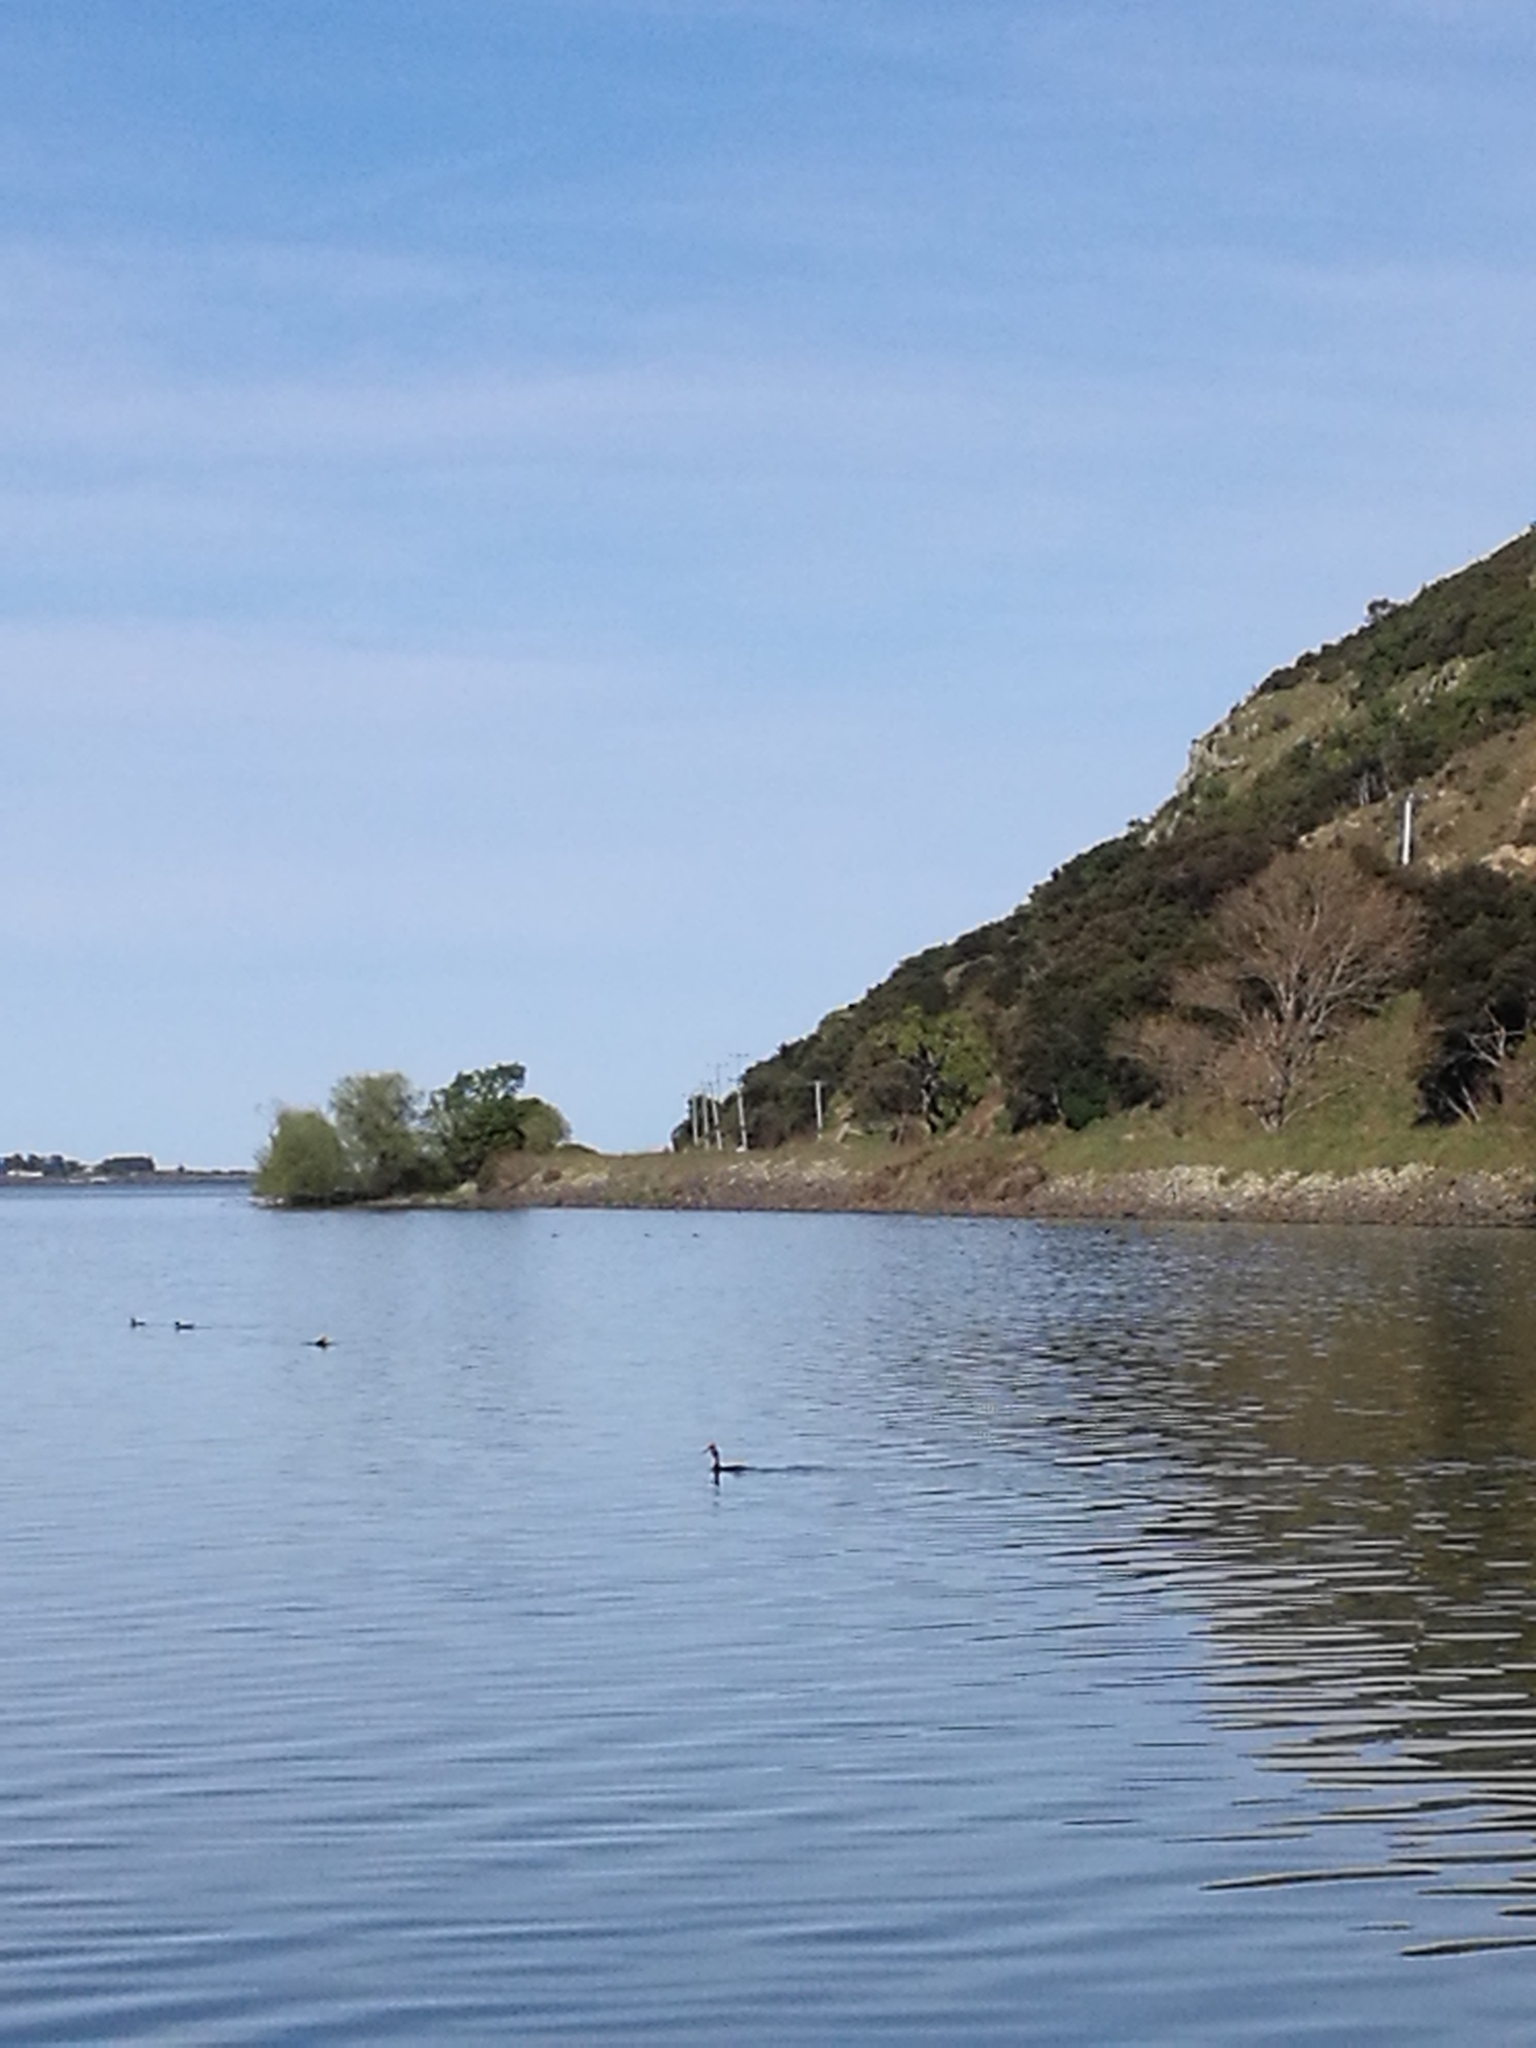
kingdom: Animalia
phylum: Chordata
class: Aves
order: Podicipediformes
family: Podicipedidae
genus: Podiceps
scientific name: Podiceps cristatus
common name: Great crested grebe
